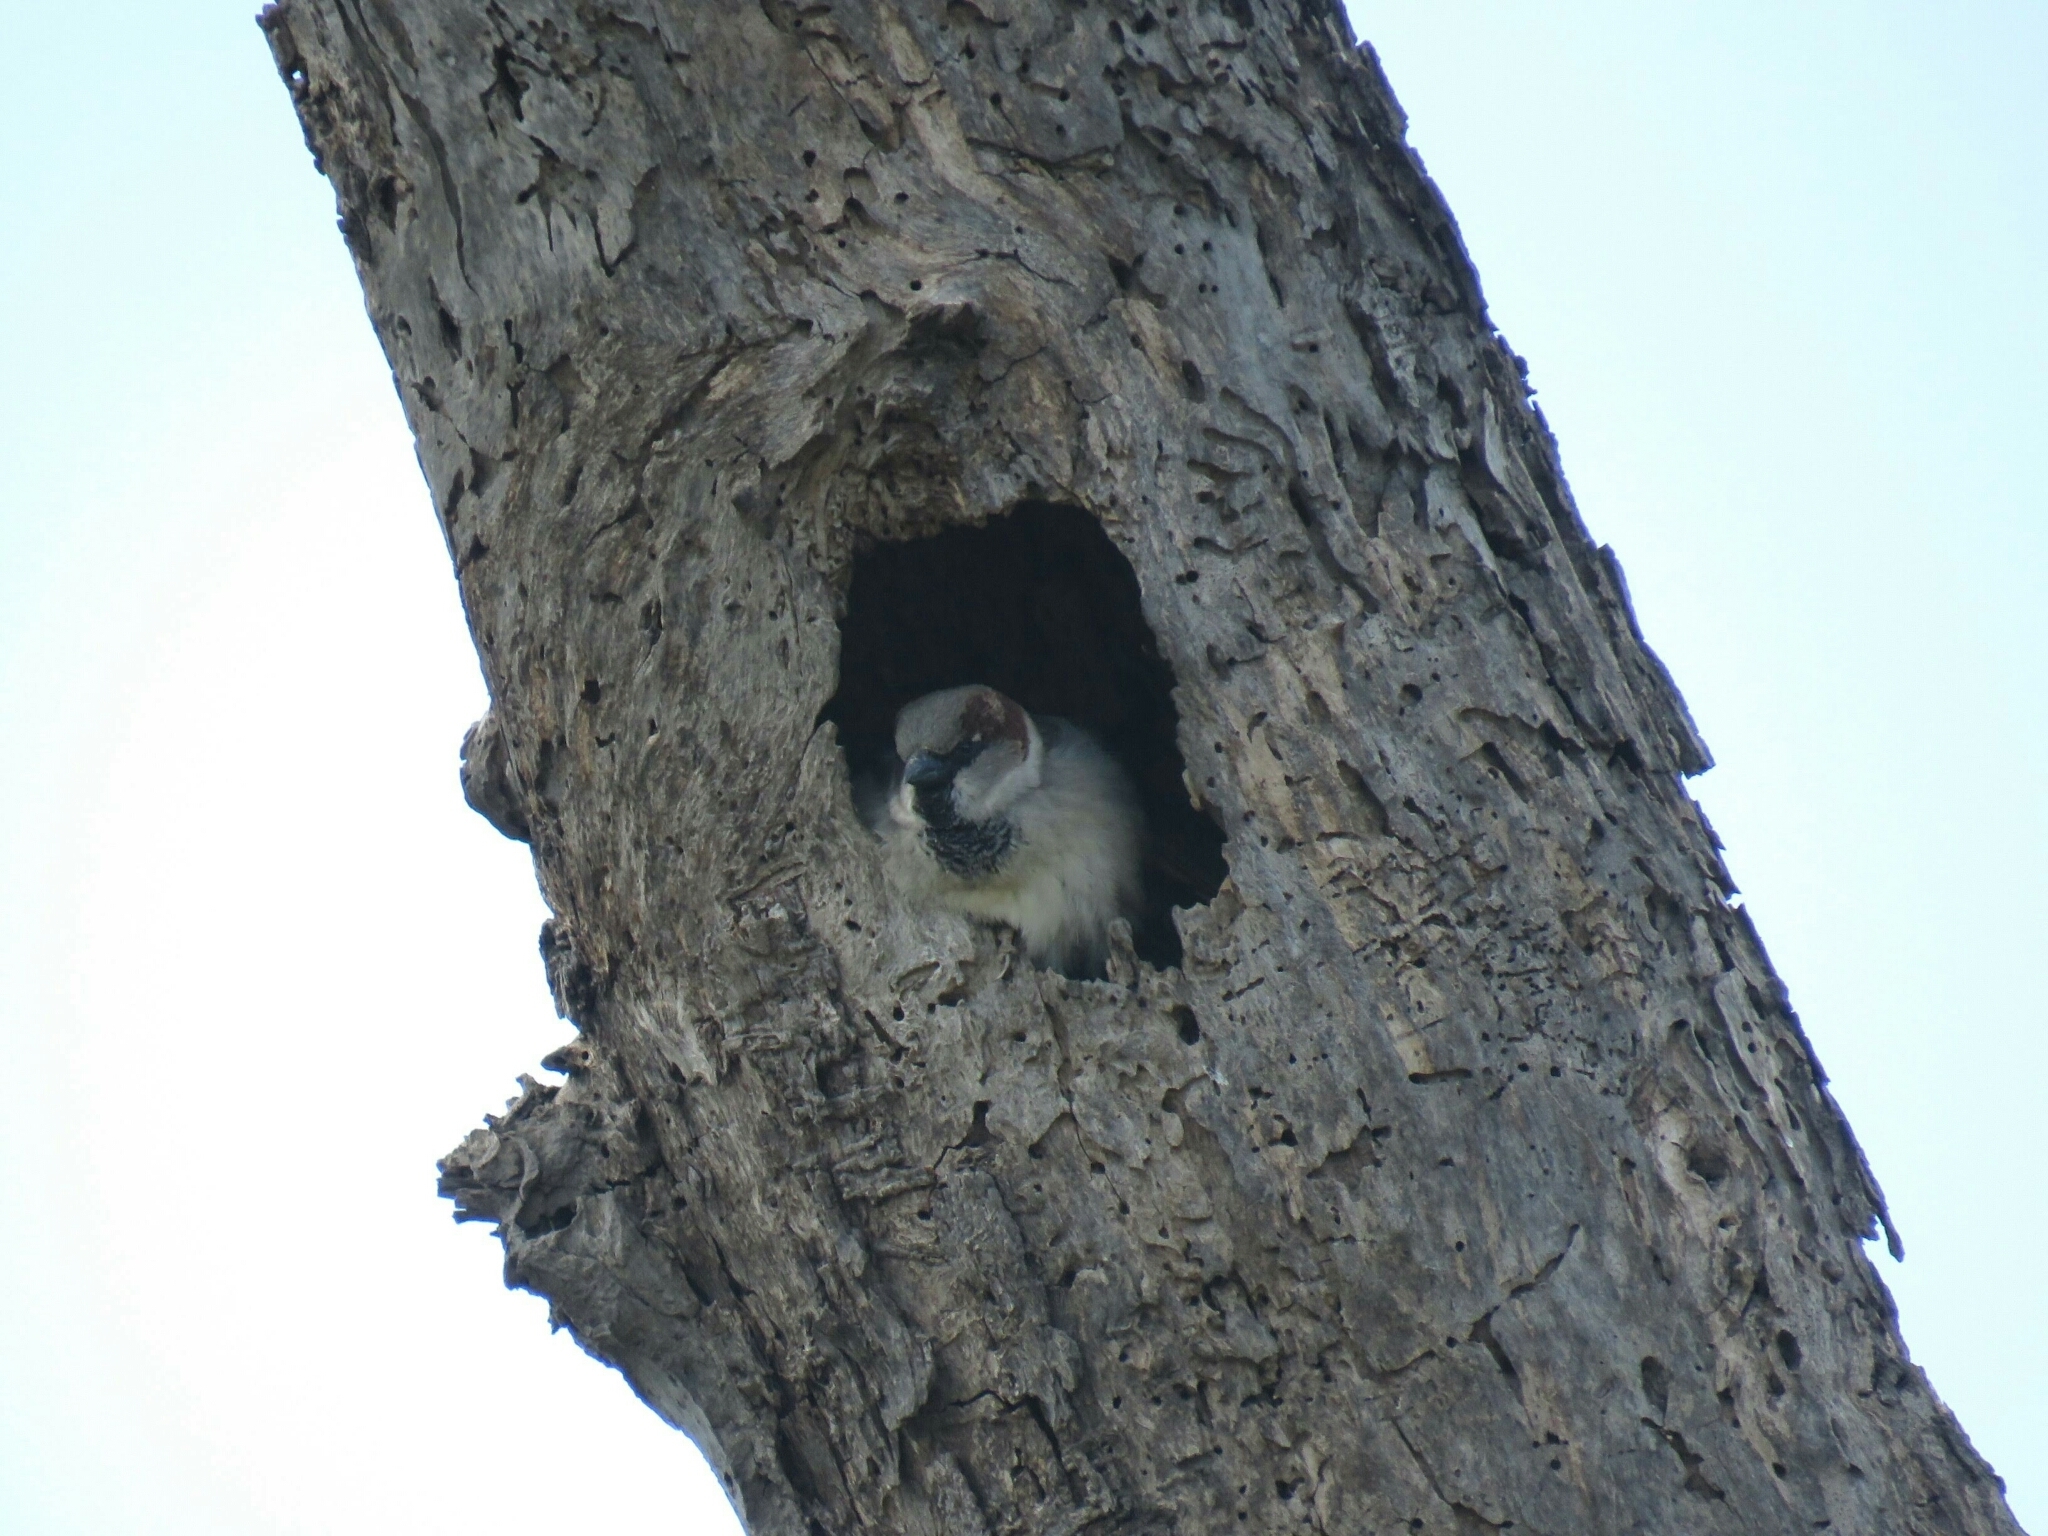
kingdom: Animalia
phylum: Chordata
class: Aves
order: Passeriformes
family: Passeridae
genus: Passer
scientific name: Passer domesticus
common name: House sparrow
